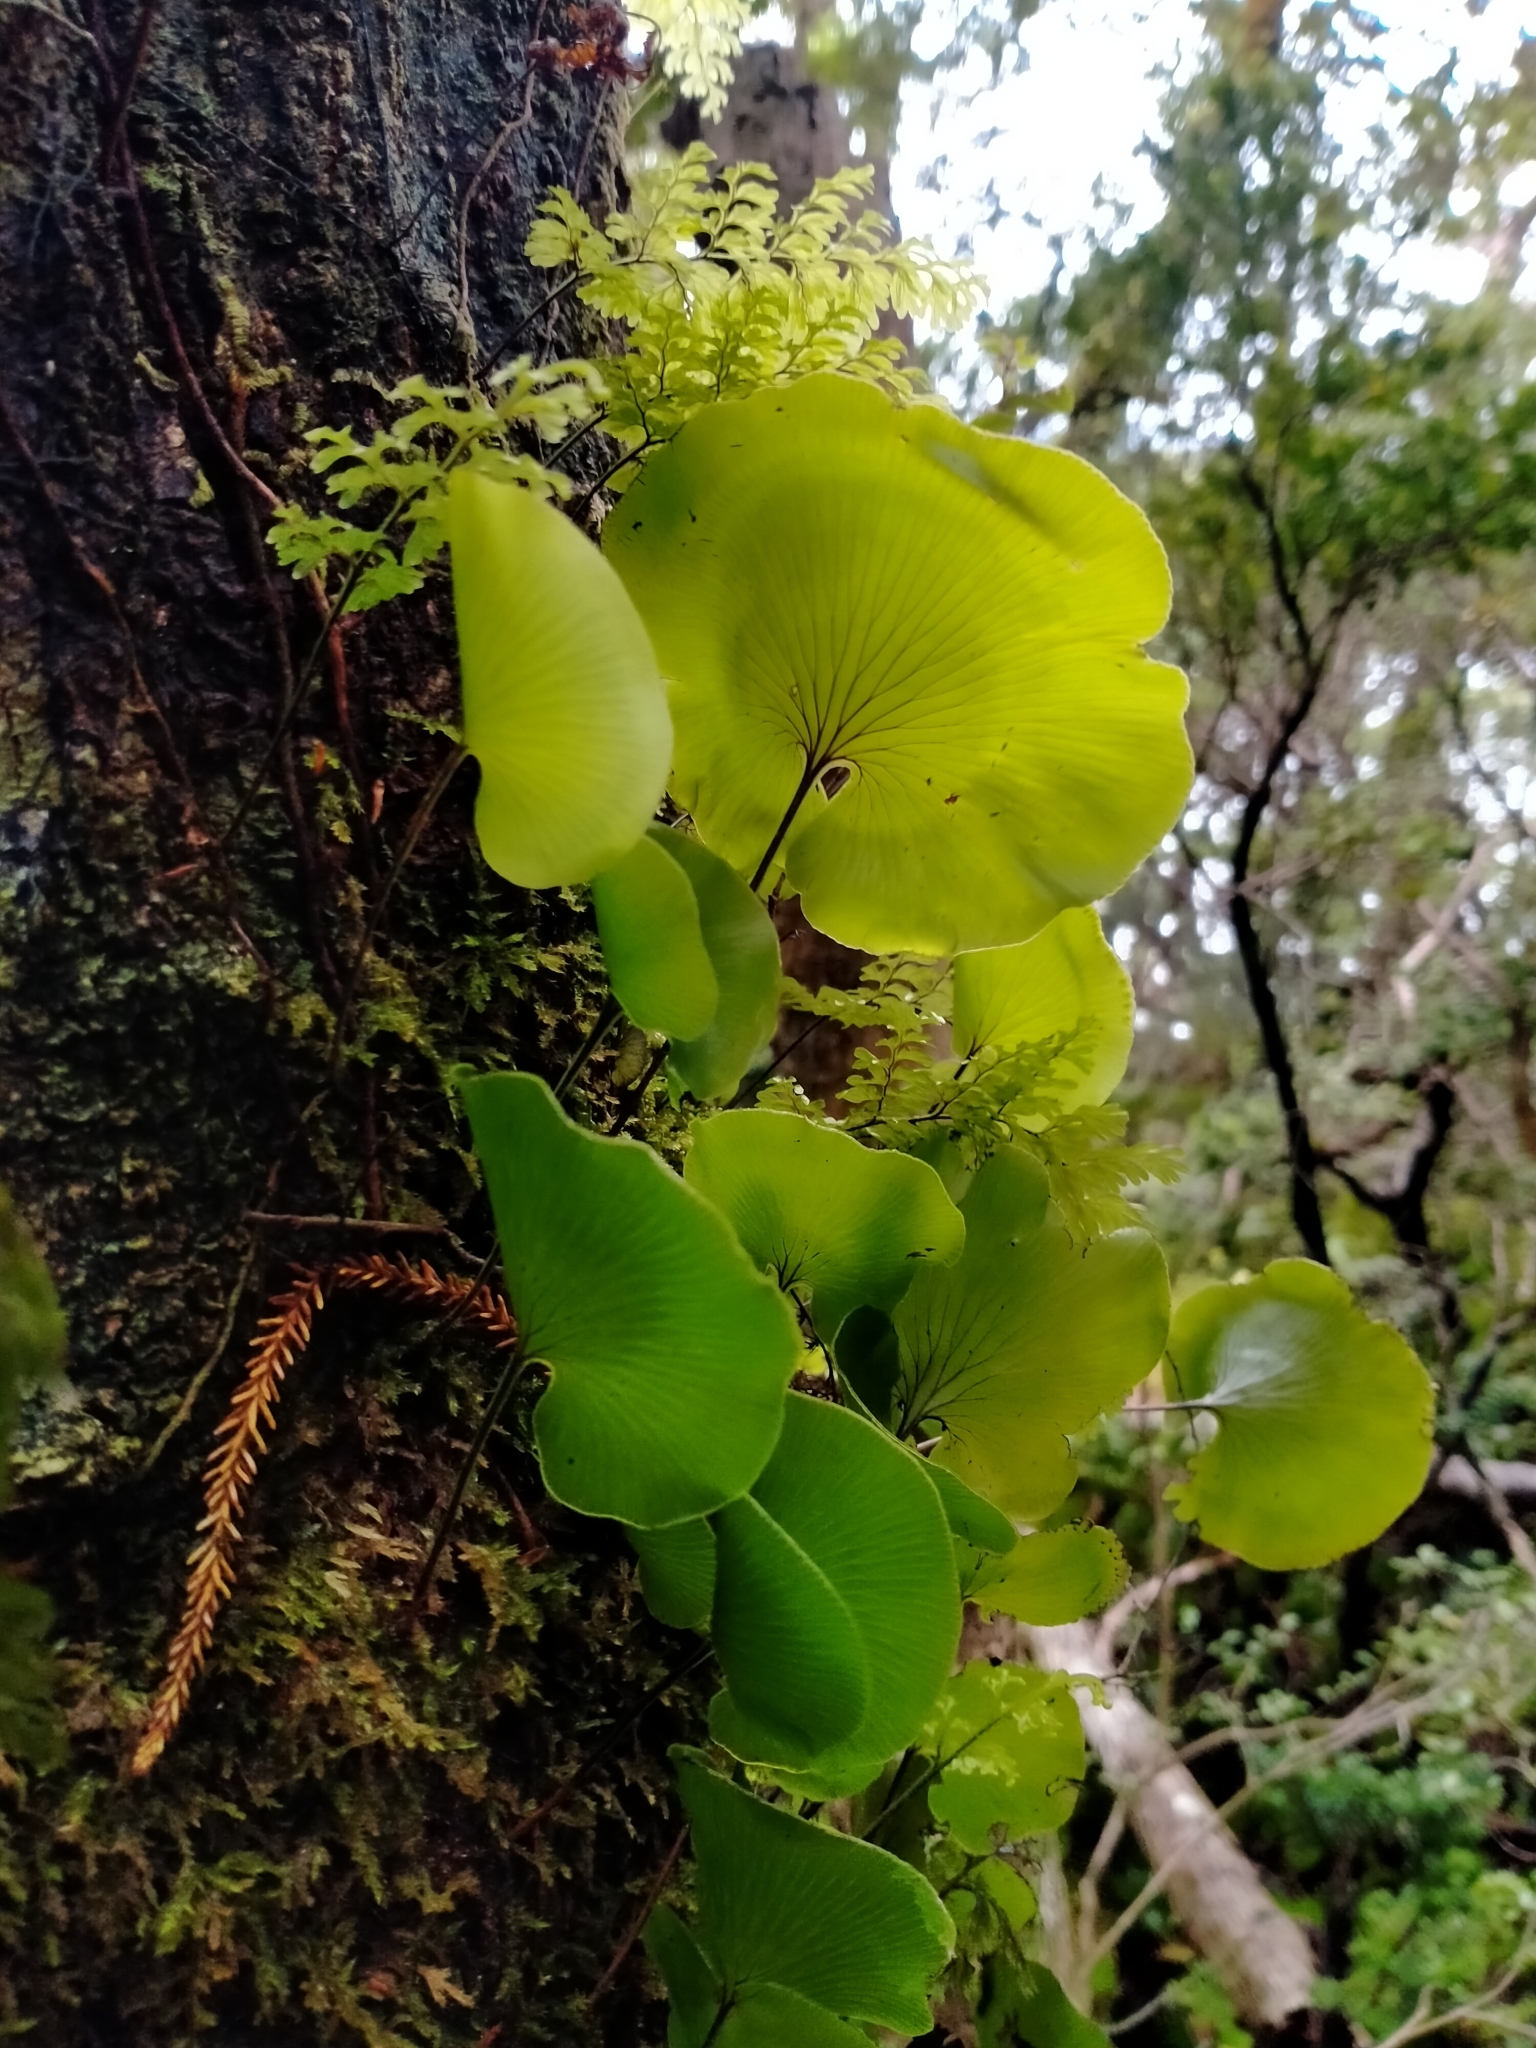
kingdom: Plantae
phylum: Tracheophyta
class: Polypodiopsida
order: Hymenophyllales
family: Hymenophyllaceae
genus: Hymenophyllum
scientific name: Hymenophyllum nephrophyllum
